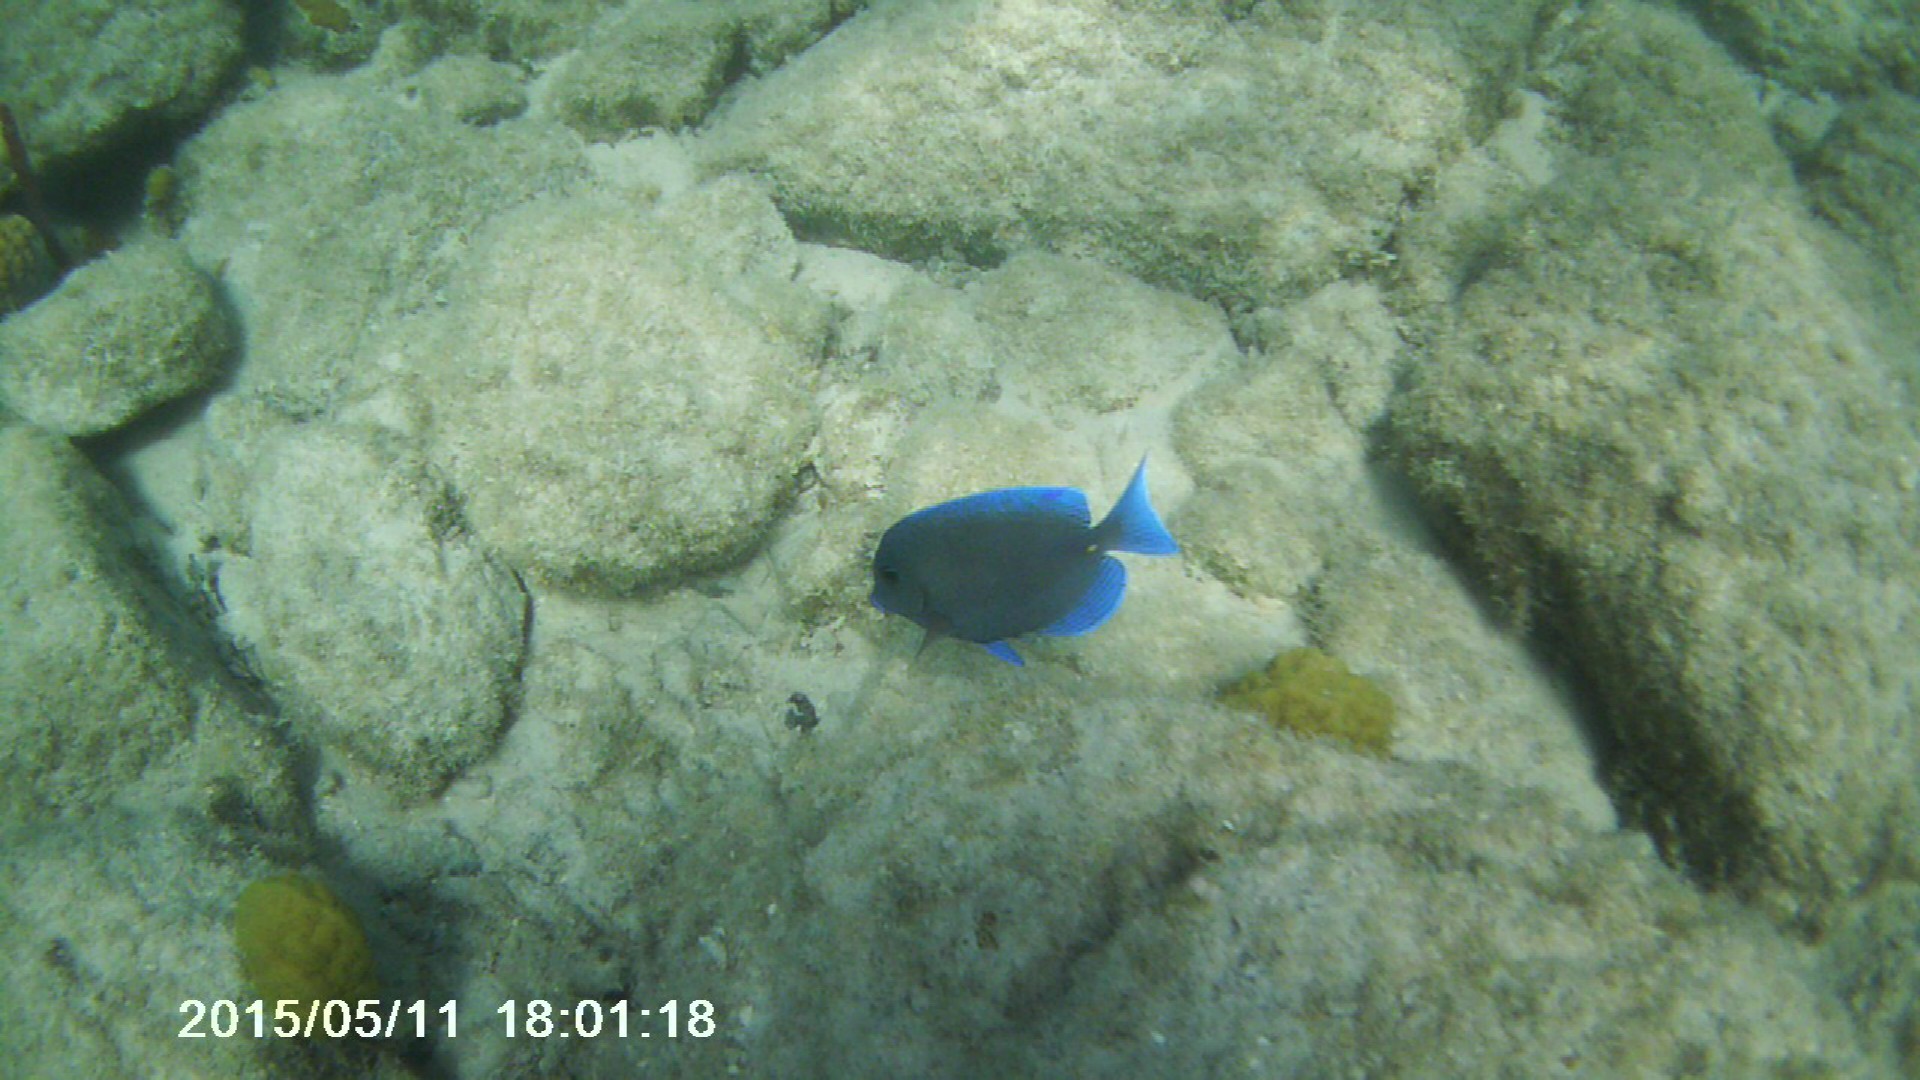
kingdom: Animalia
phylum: Chordata
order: Perciformes
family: Acanthuridae
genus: Acanthurus
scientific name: Acanthurus coeruleus
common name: Blue tang
